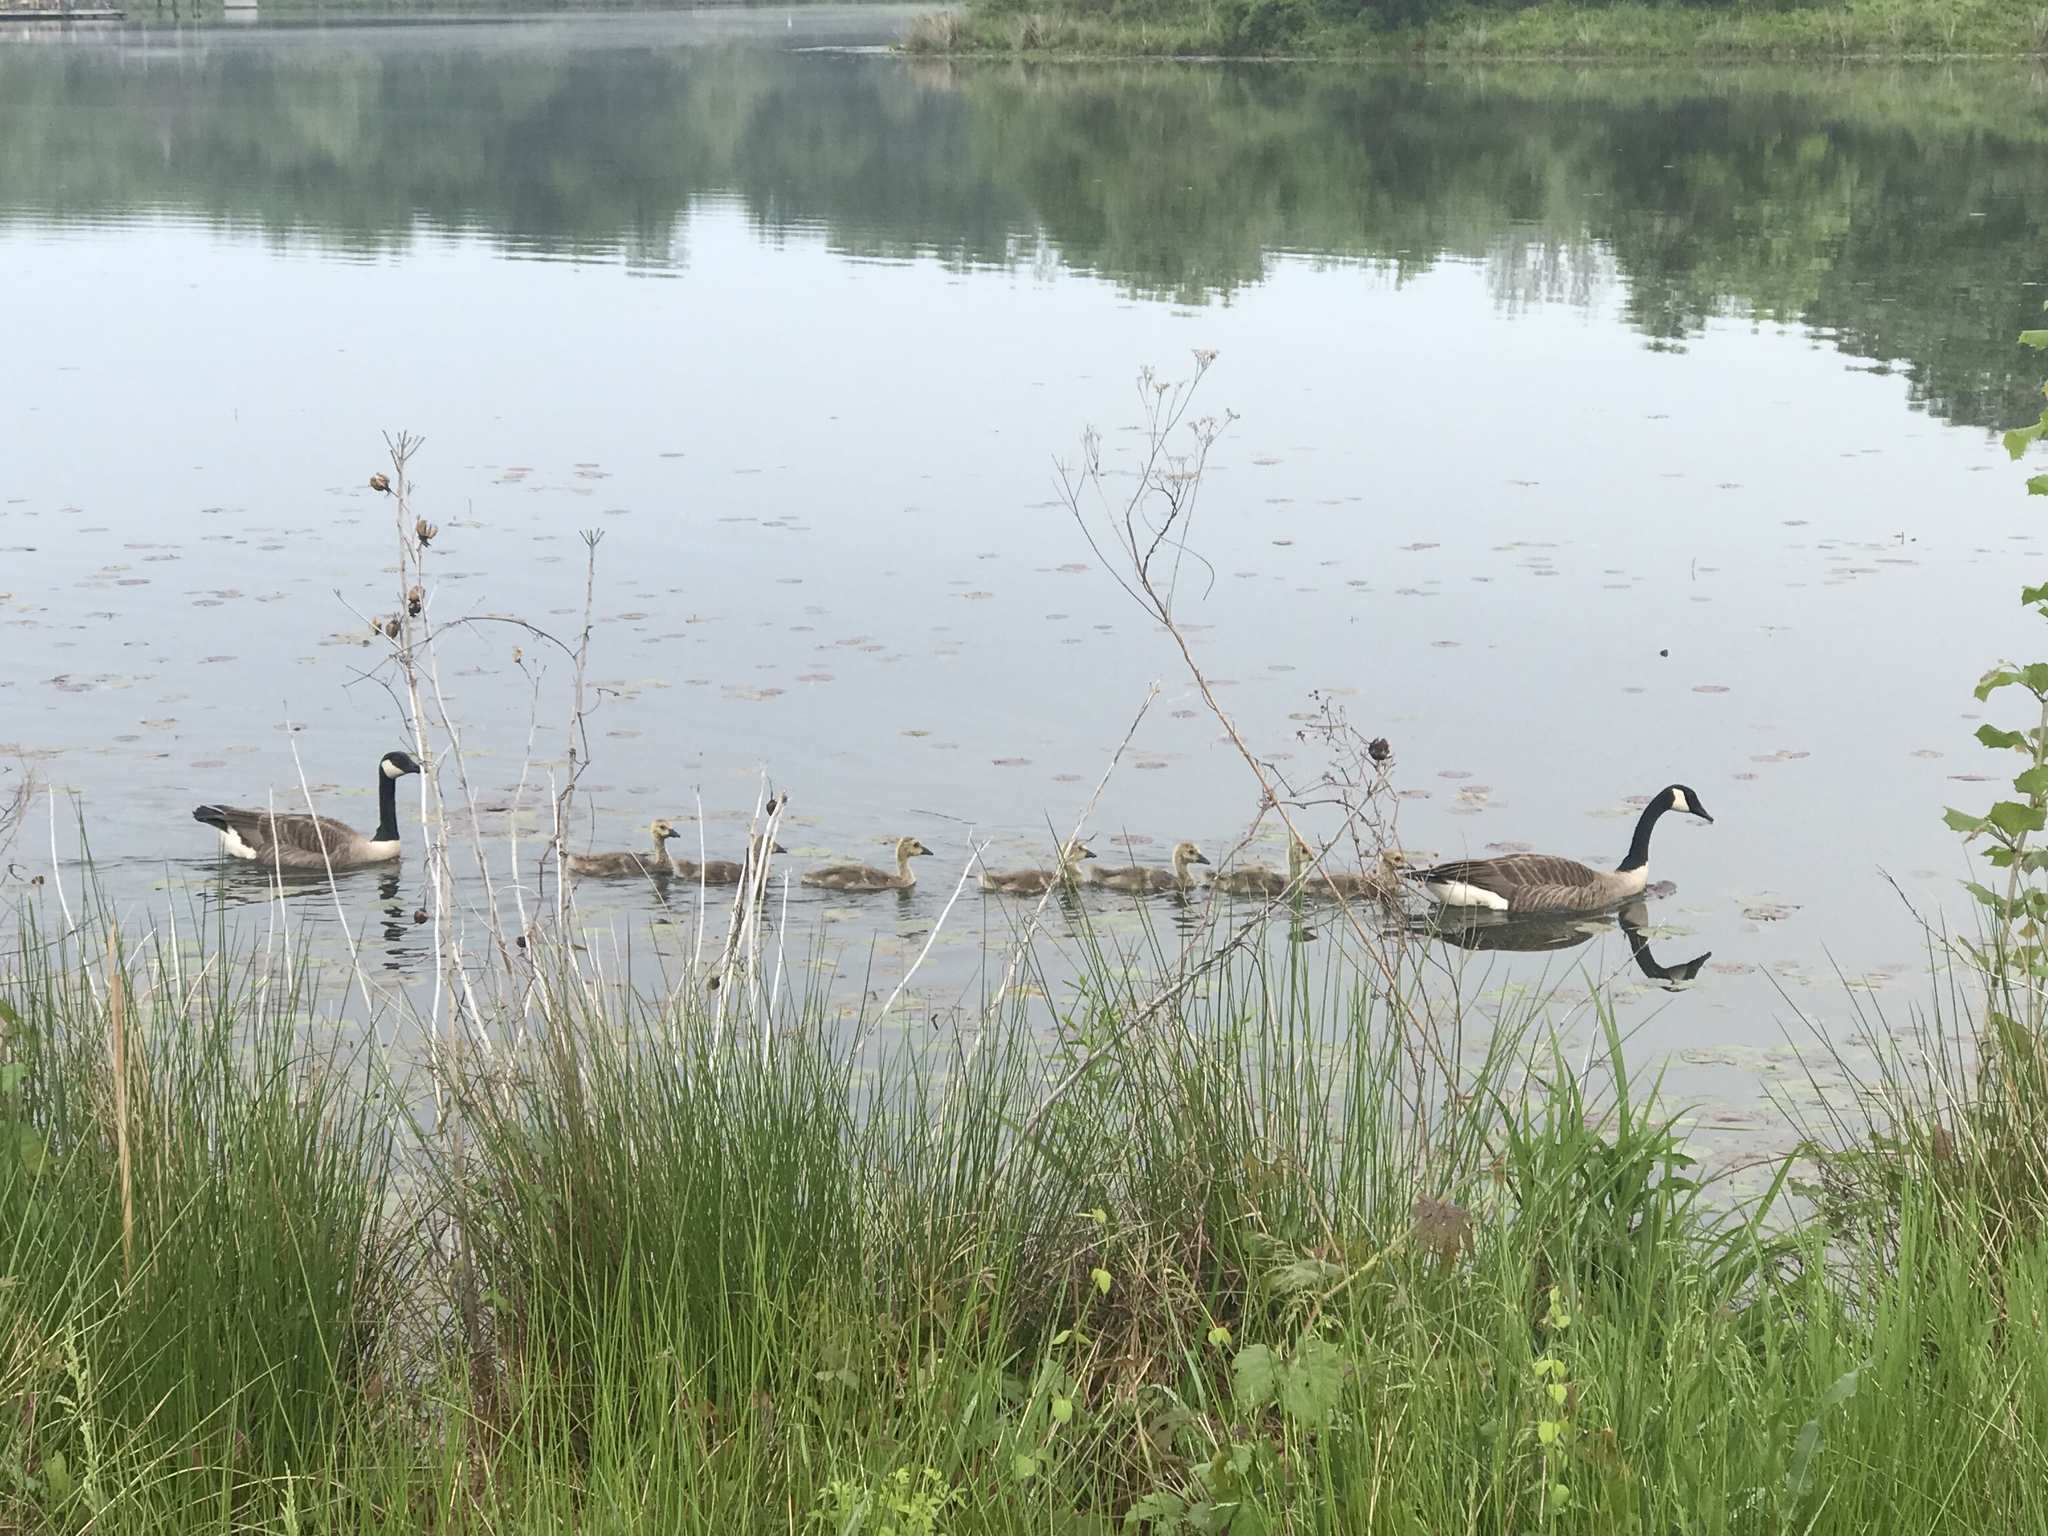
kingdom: Animalia
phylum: Chordata
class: Aves
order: Anseriformes
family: Anatidae
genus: Branta
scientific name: Branta canadensis
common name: Canada goose
